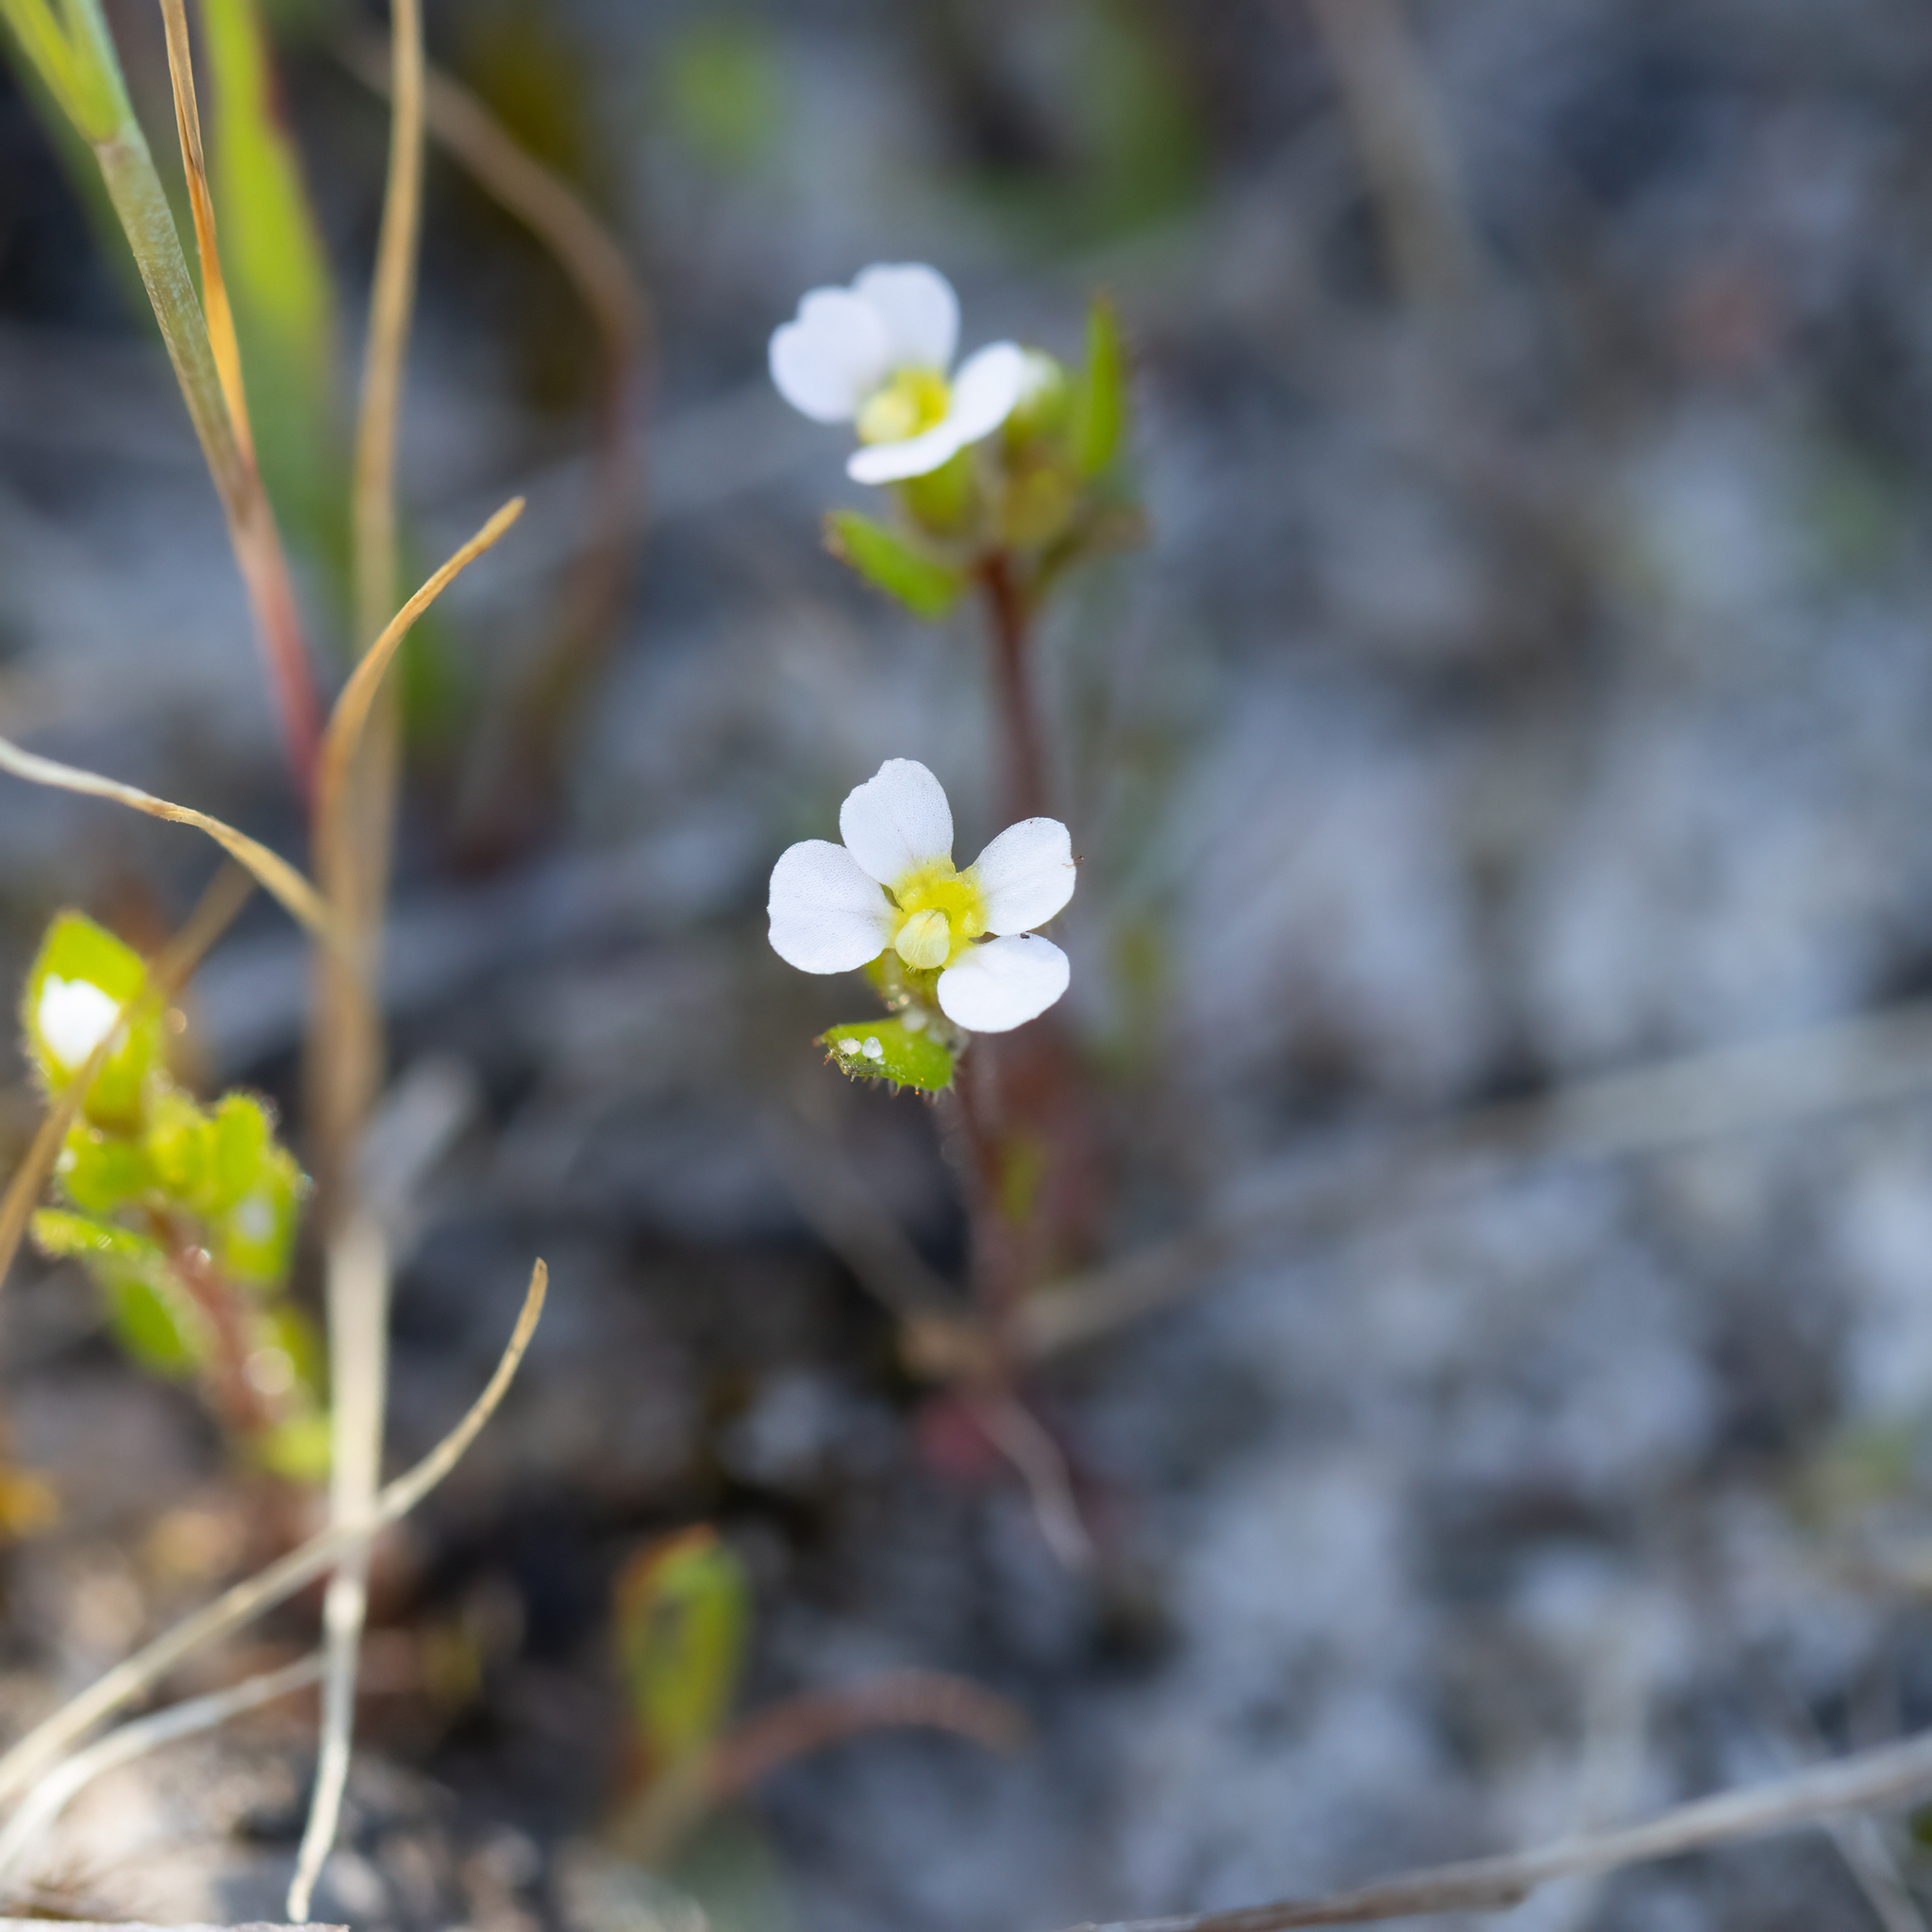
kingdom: Plantae
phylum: Tracheophyta
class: Magnoliopsida
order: Asterales
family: Stylidiaceae
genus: Levenhookia
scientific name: Levenhookia dubia
